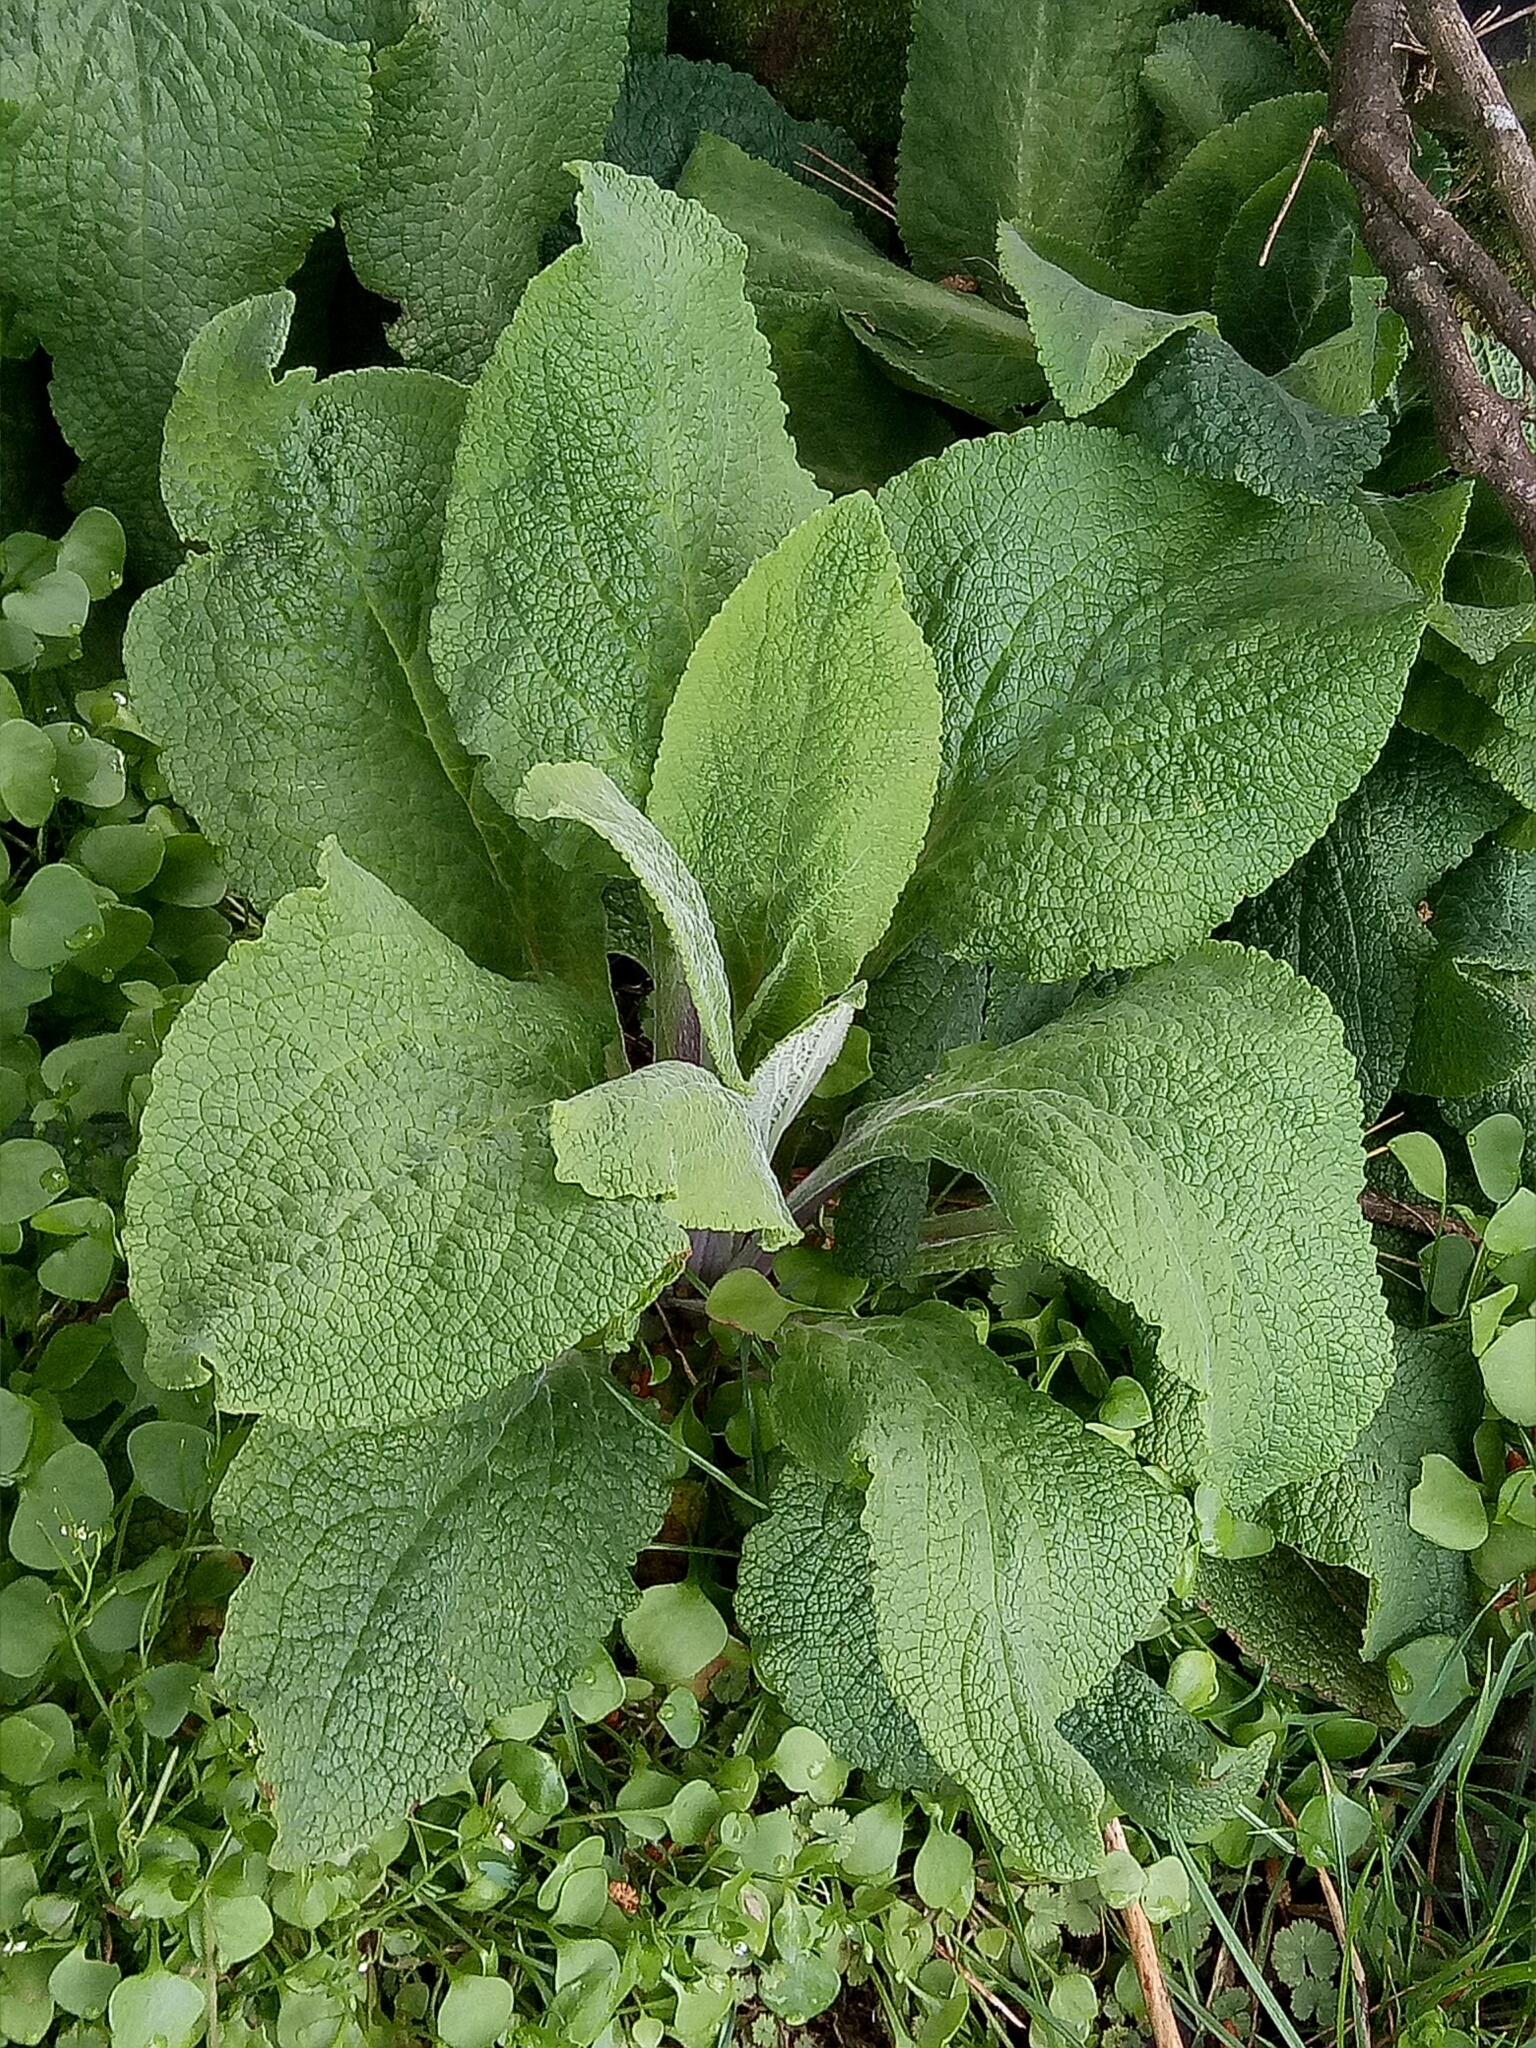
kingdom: Plantae
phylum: Tracheophyta
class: Magnoliopsida
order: Lamiales
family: Plantaginaceae
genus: Digitalis
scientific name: Digitalis purpurea
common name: Foxglove
